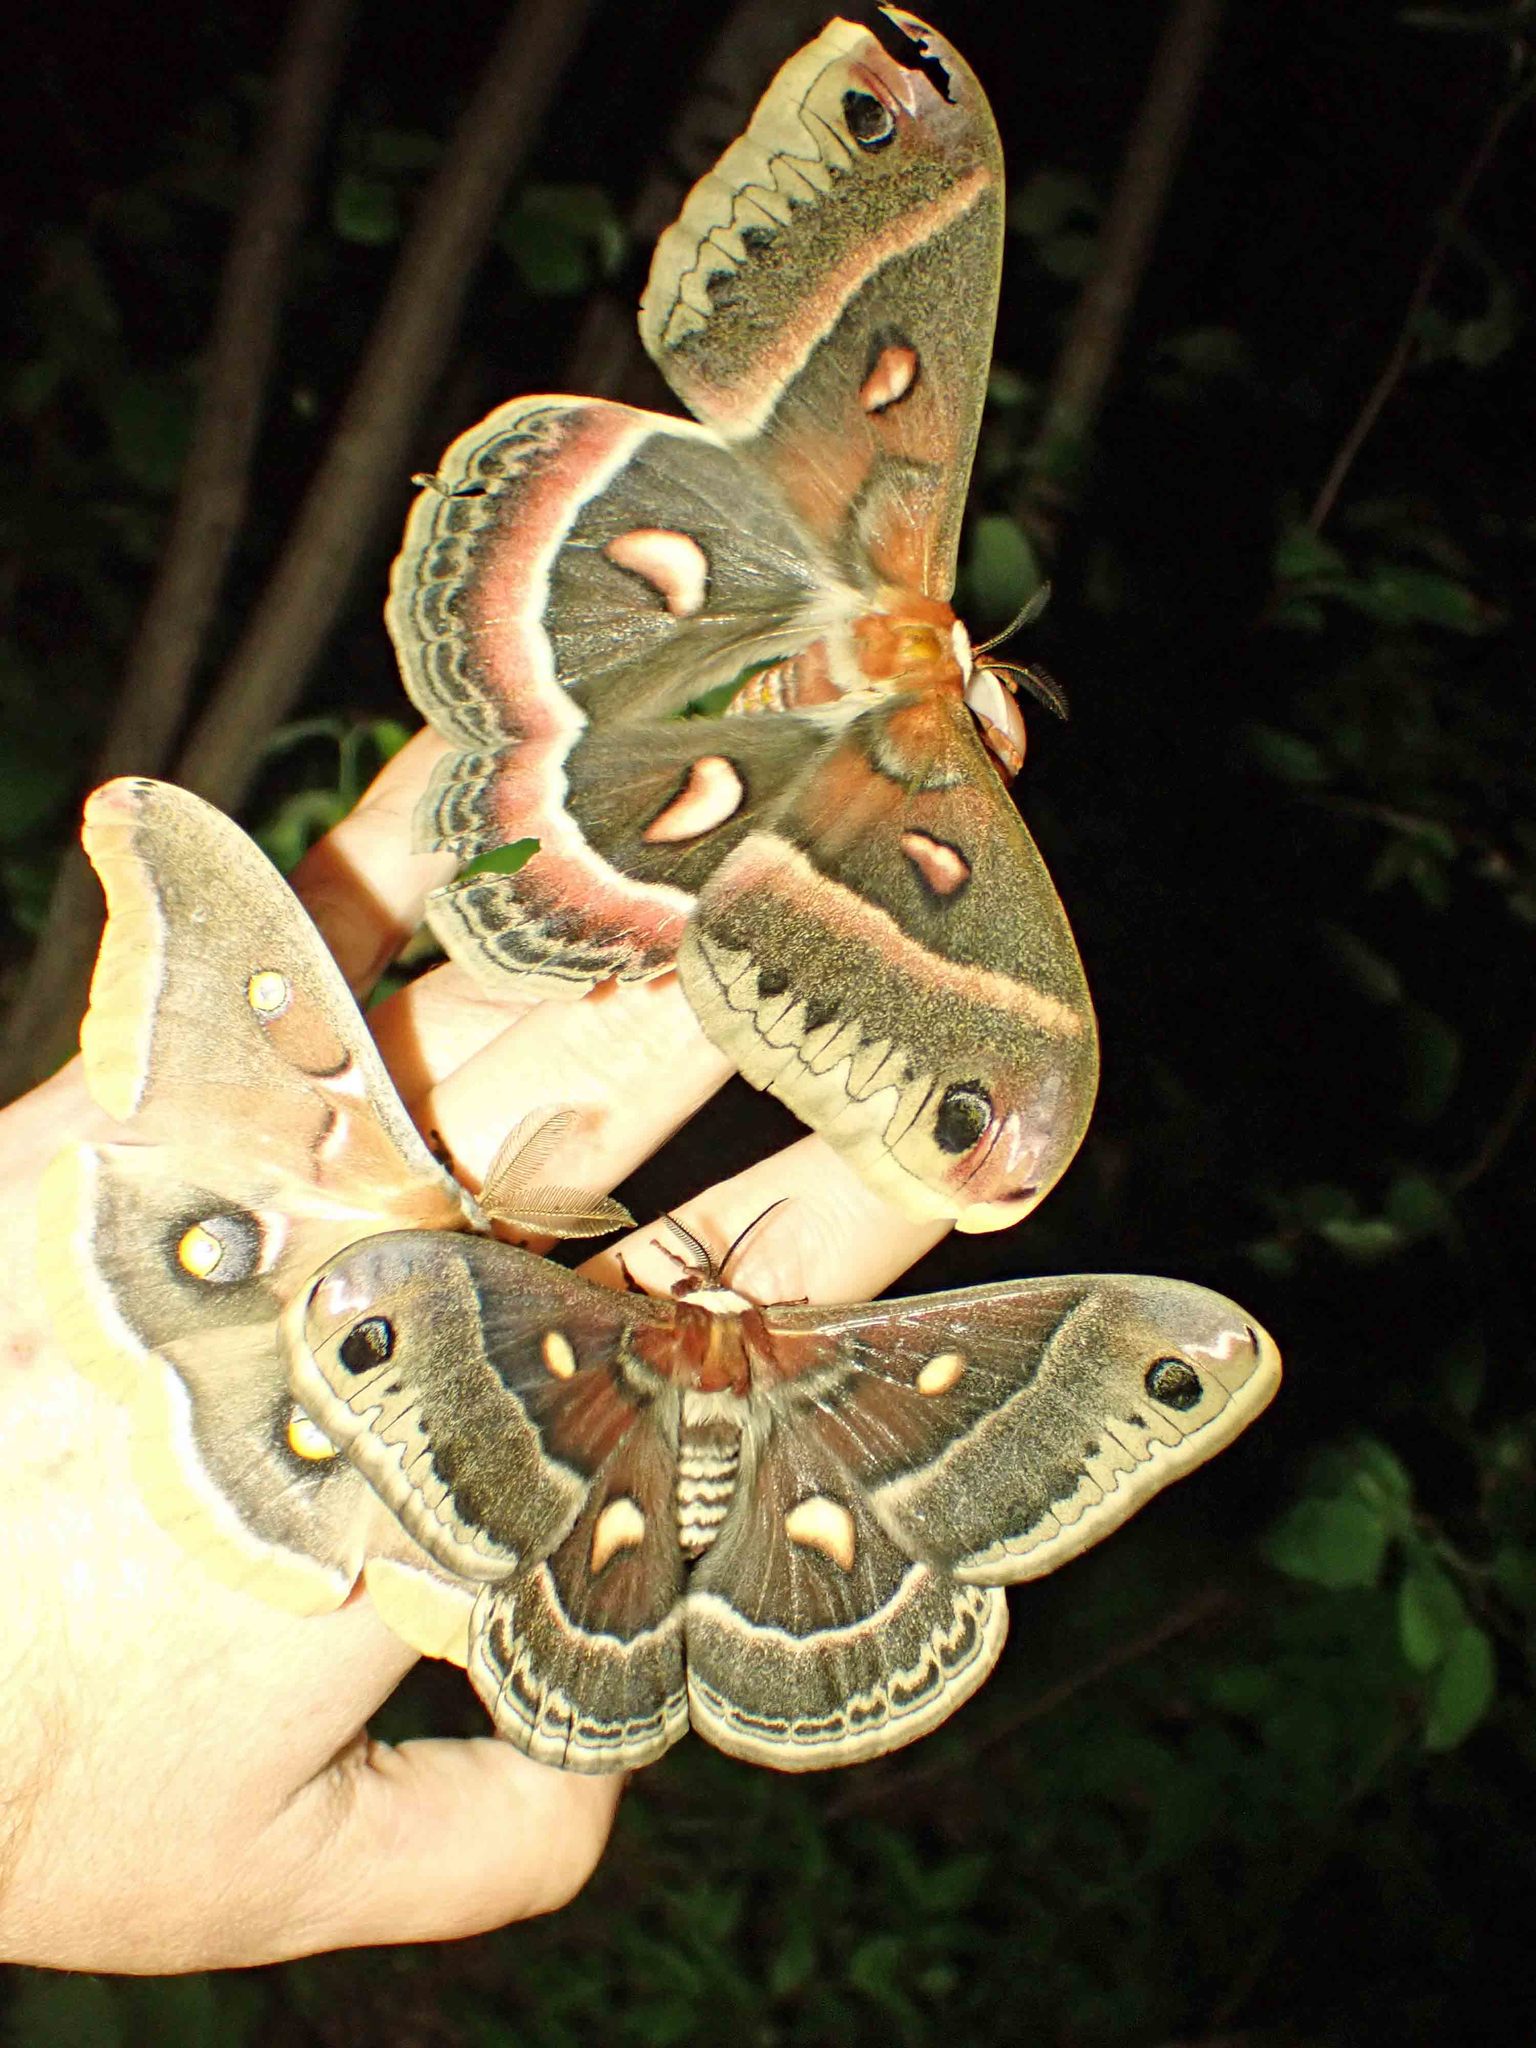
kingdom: Animalia
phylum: Arthropoda
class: Insecta
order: Lepidoptera
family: Saturniidae
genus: Antheraea
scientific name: Antheraea polyphemus
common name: Polyphemus moth
